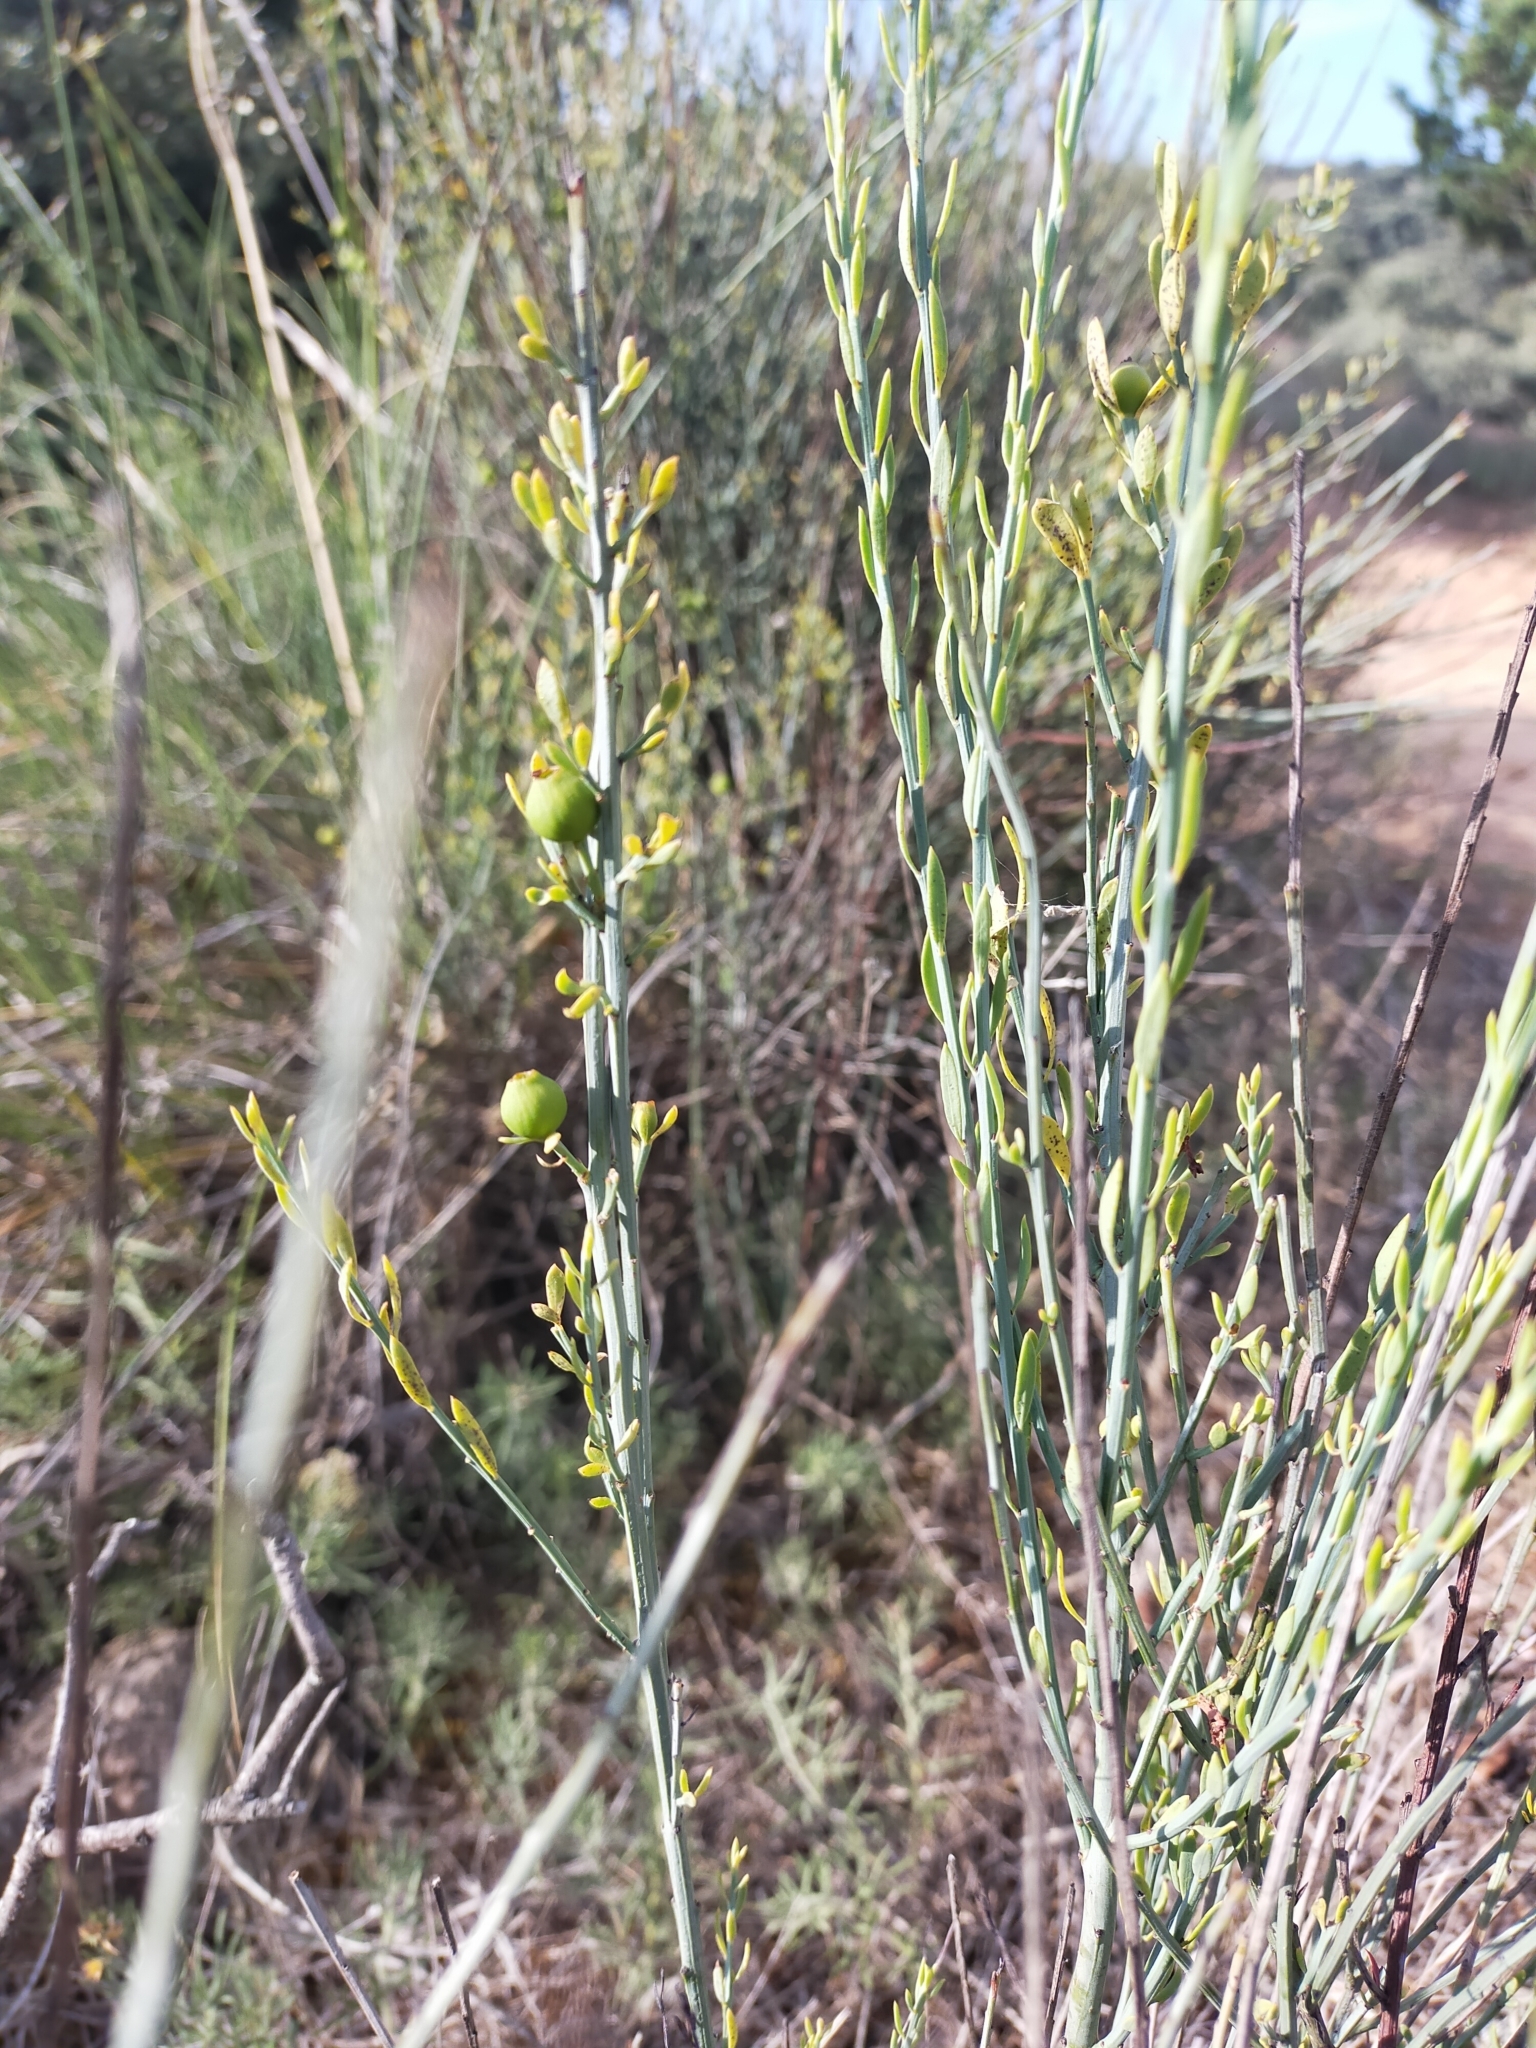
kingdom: Plantae
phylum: Tracheophyta
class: Magnoliopsida
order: Santalales
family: Santalaceae
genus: Osyris
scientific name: Osyris alba
